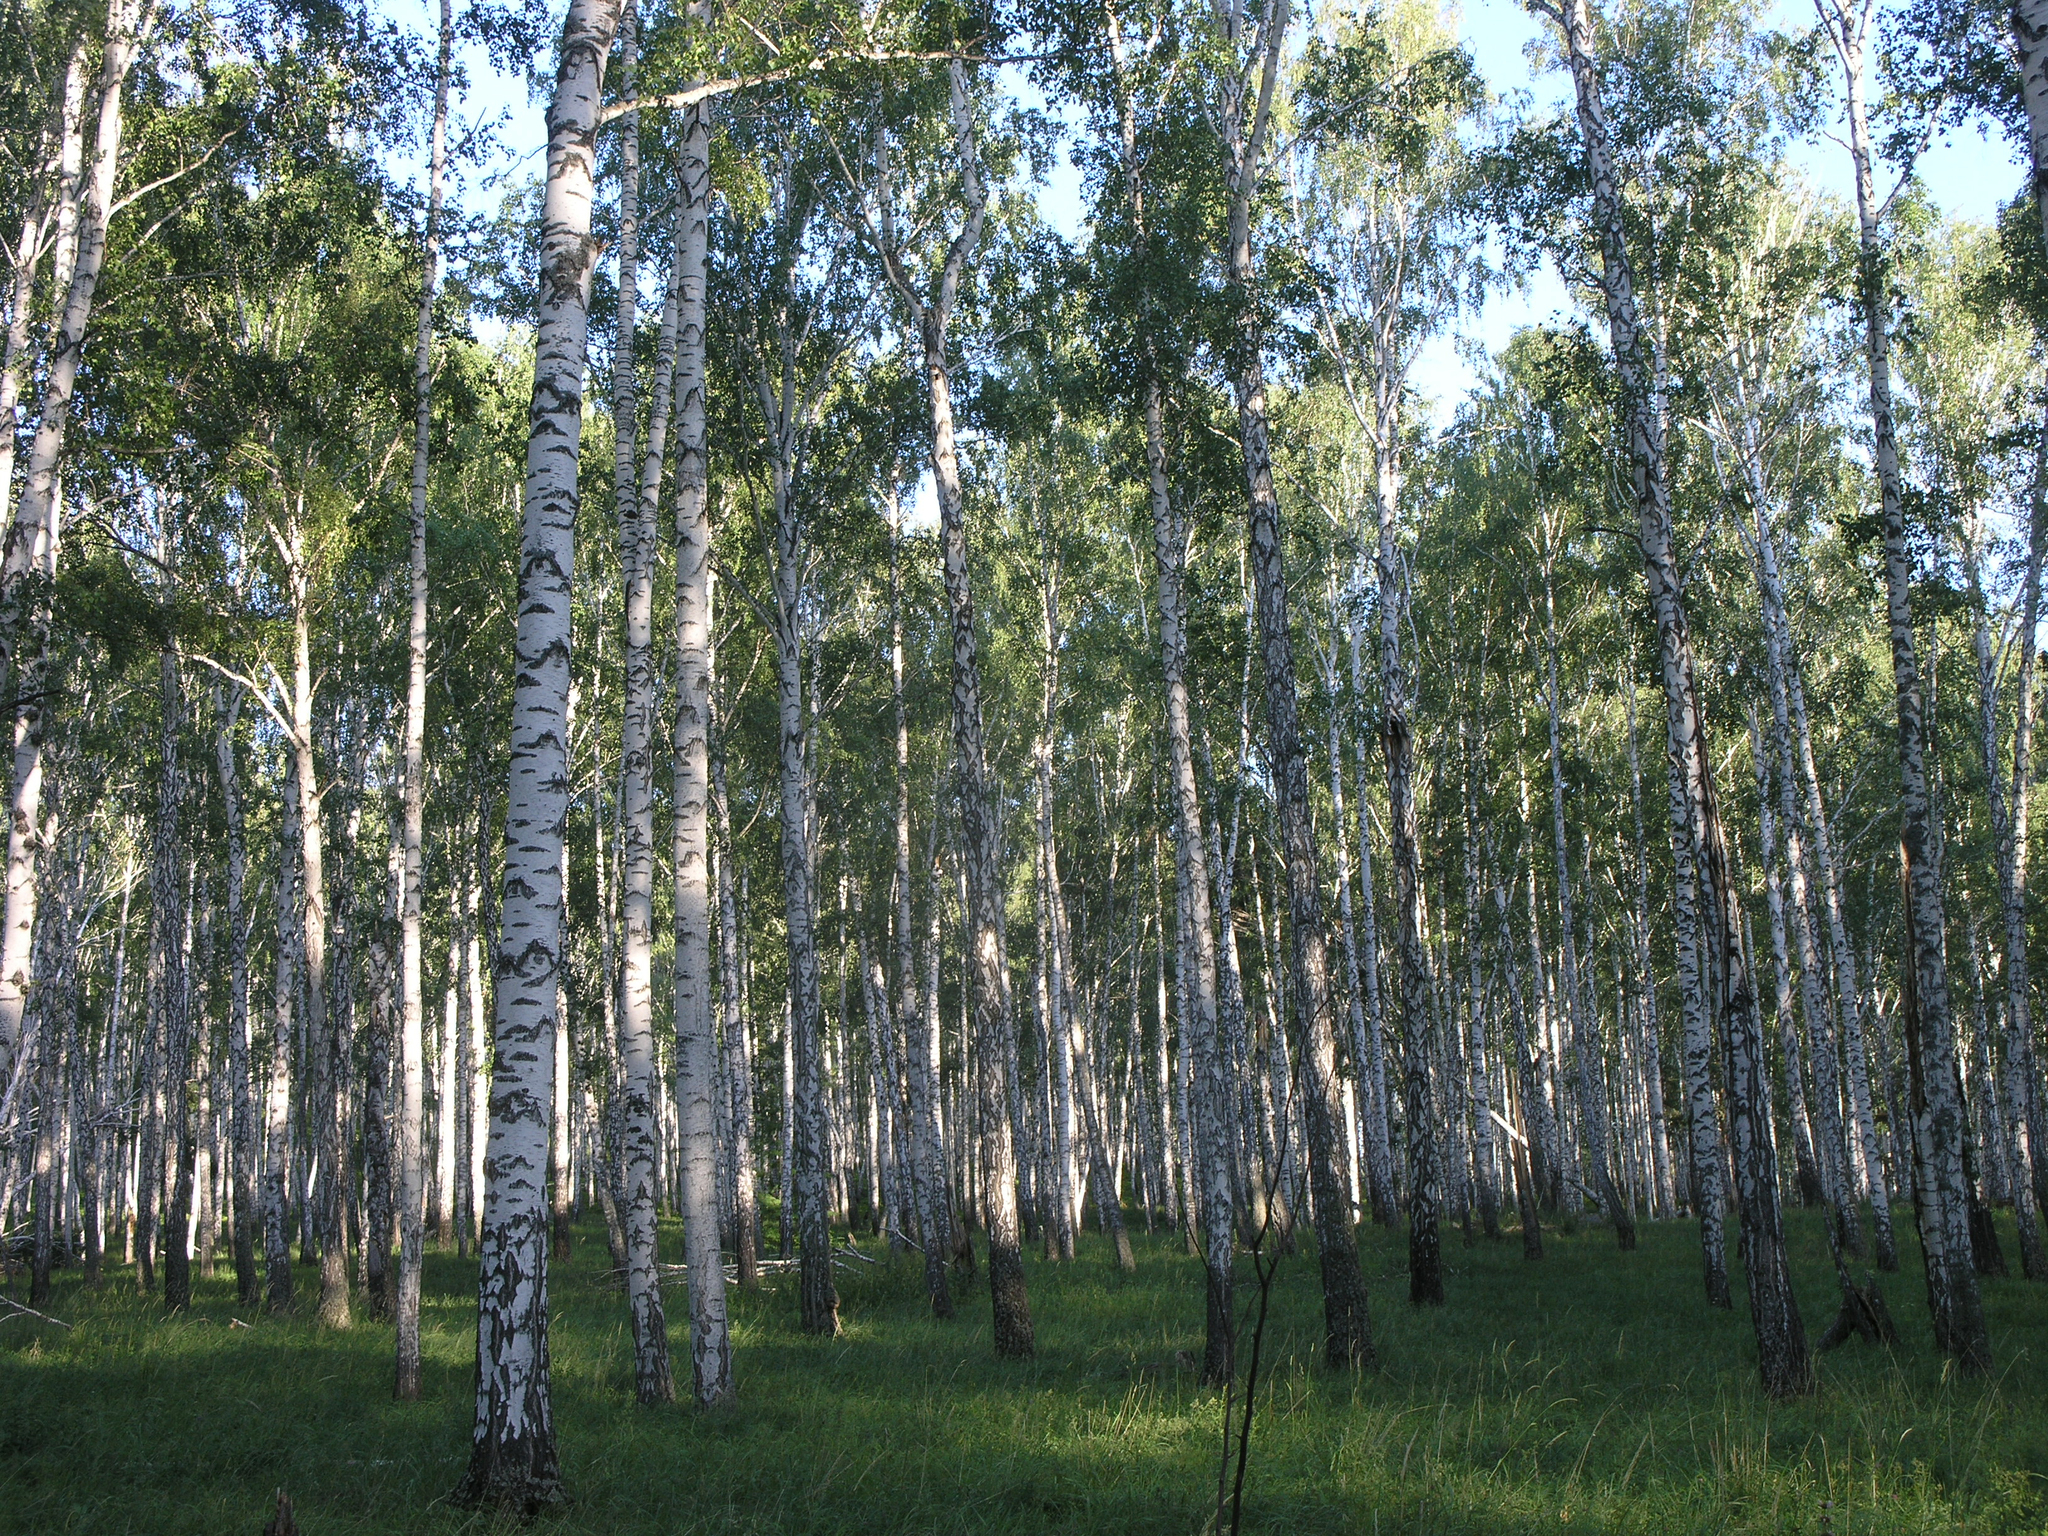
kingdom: Plantae
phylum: Tracheophyta
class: Magnoliopsida
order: Fagales
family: Betulaceae
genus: Betula
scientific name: Betula pendula
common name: Silver birch
